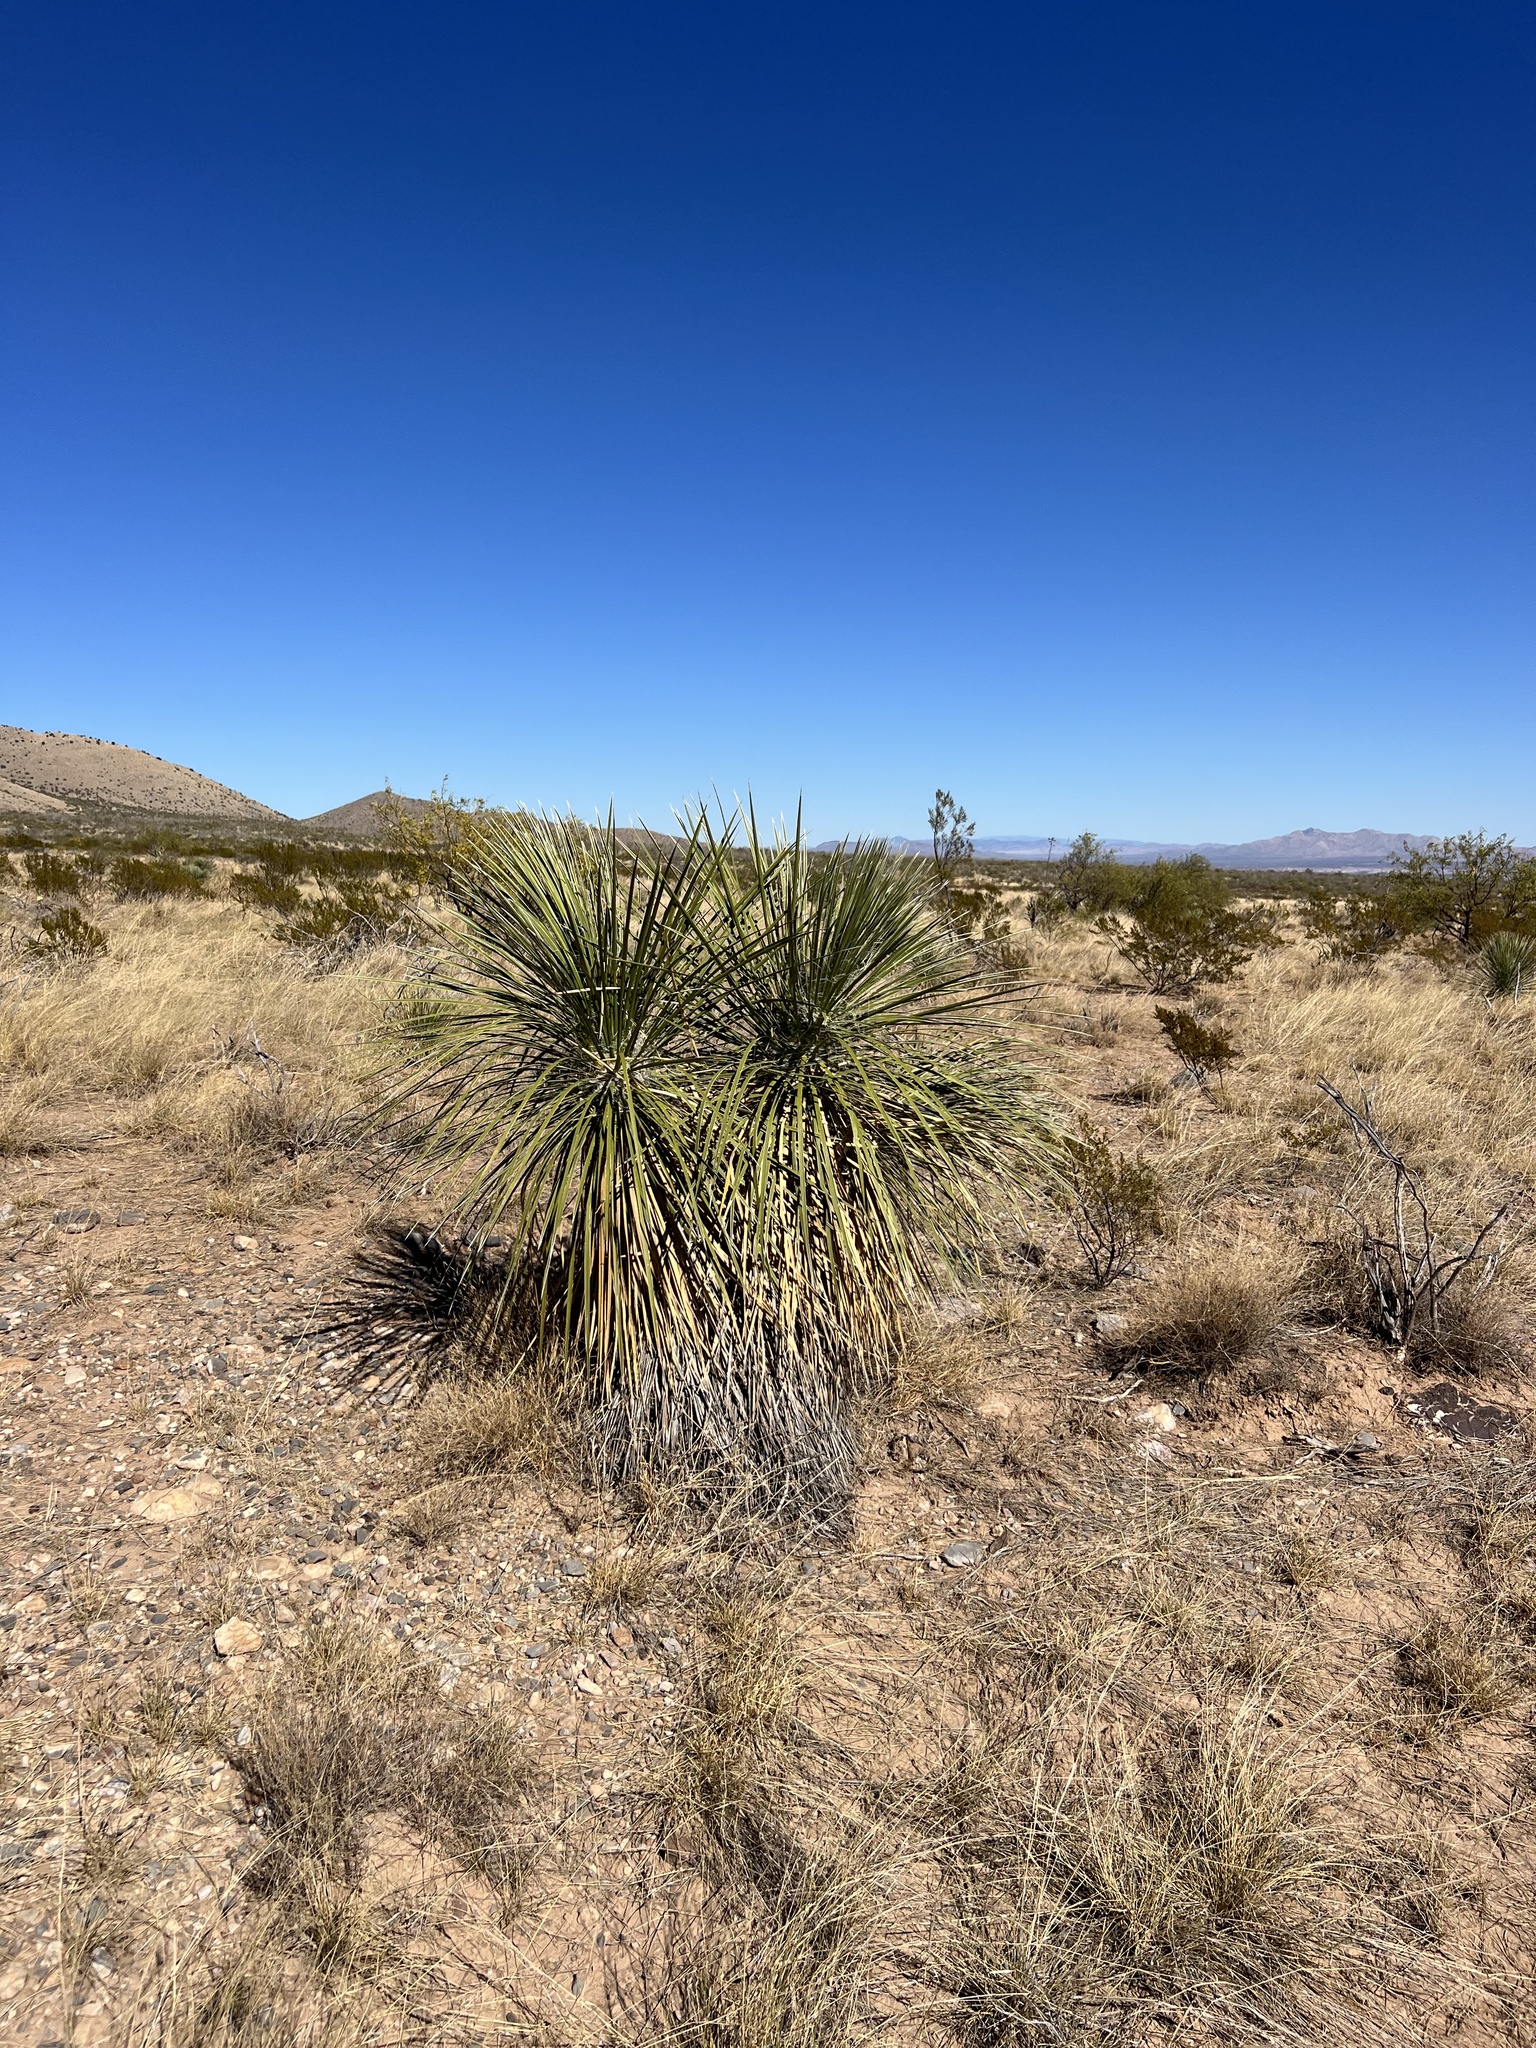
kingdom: Plantae
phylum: Tracheophyta
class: Liliopsida
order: Asparagales
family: Asparagaceae
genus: Yucca
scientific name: Yucca elata
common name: Palmella
